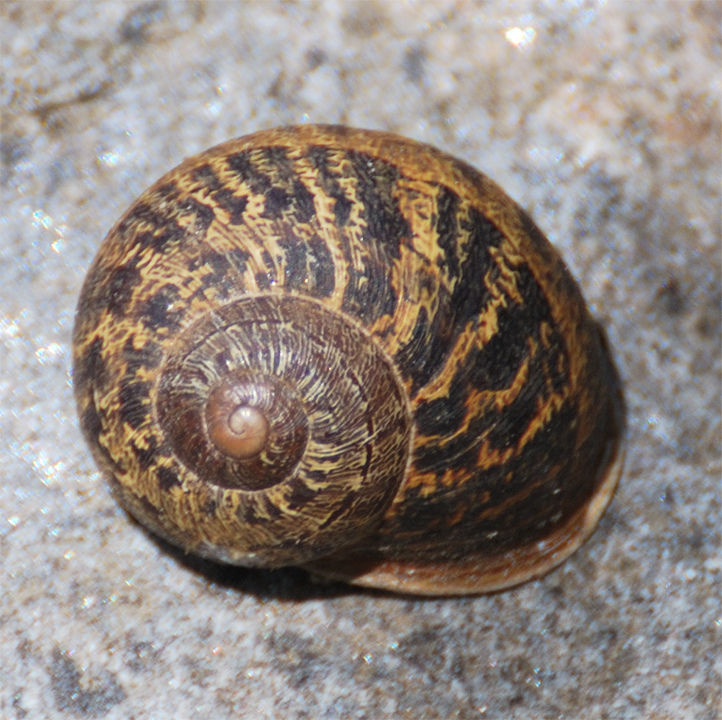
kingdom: Animalia
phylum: Mollusca
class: Gastropoda
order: Stylommatophora
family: Helicidae
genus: Cornu
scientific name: Cornu aspersum
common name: Brown garden snail
